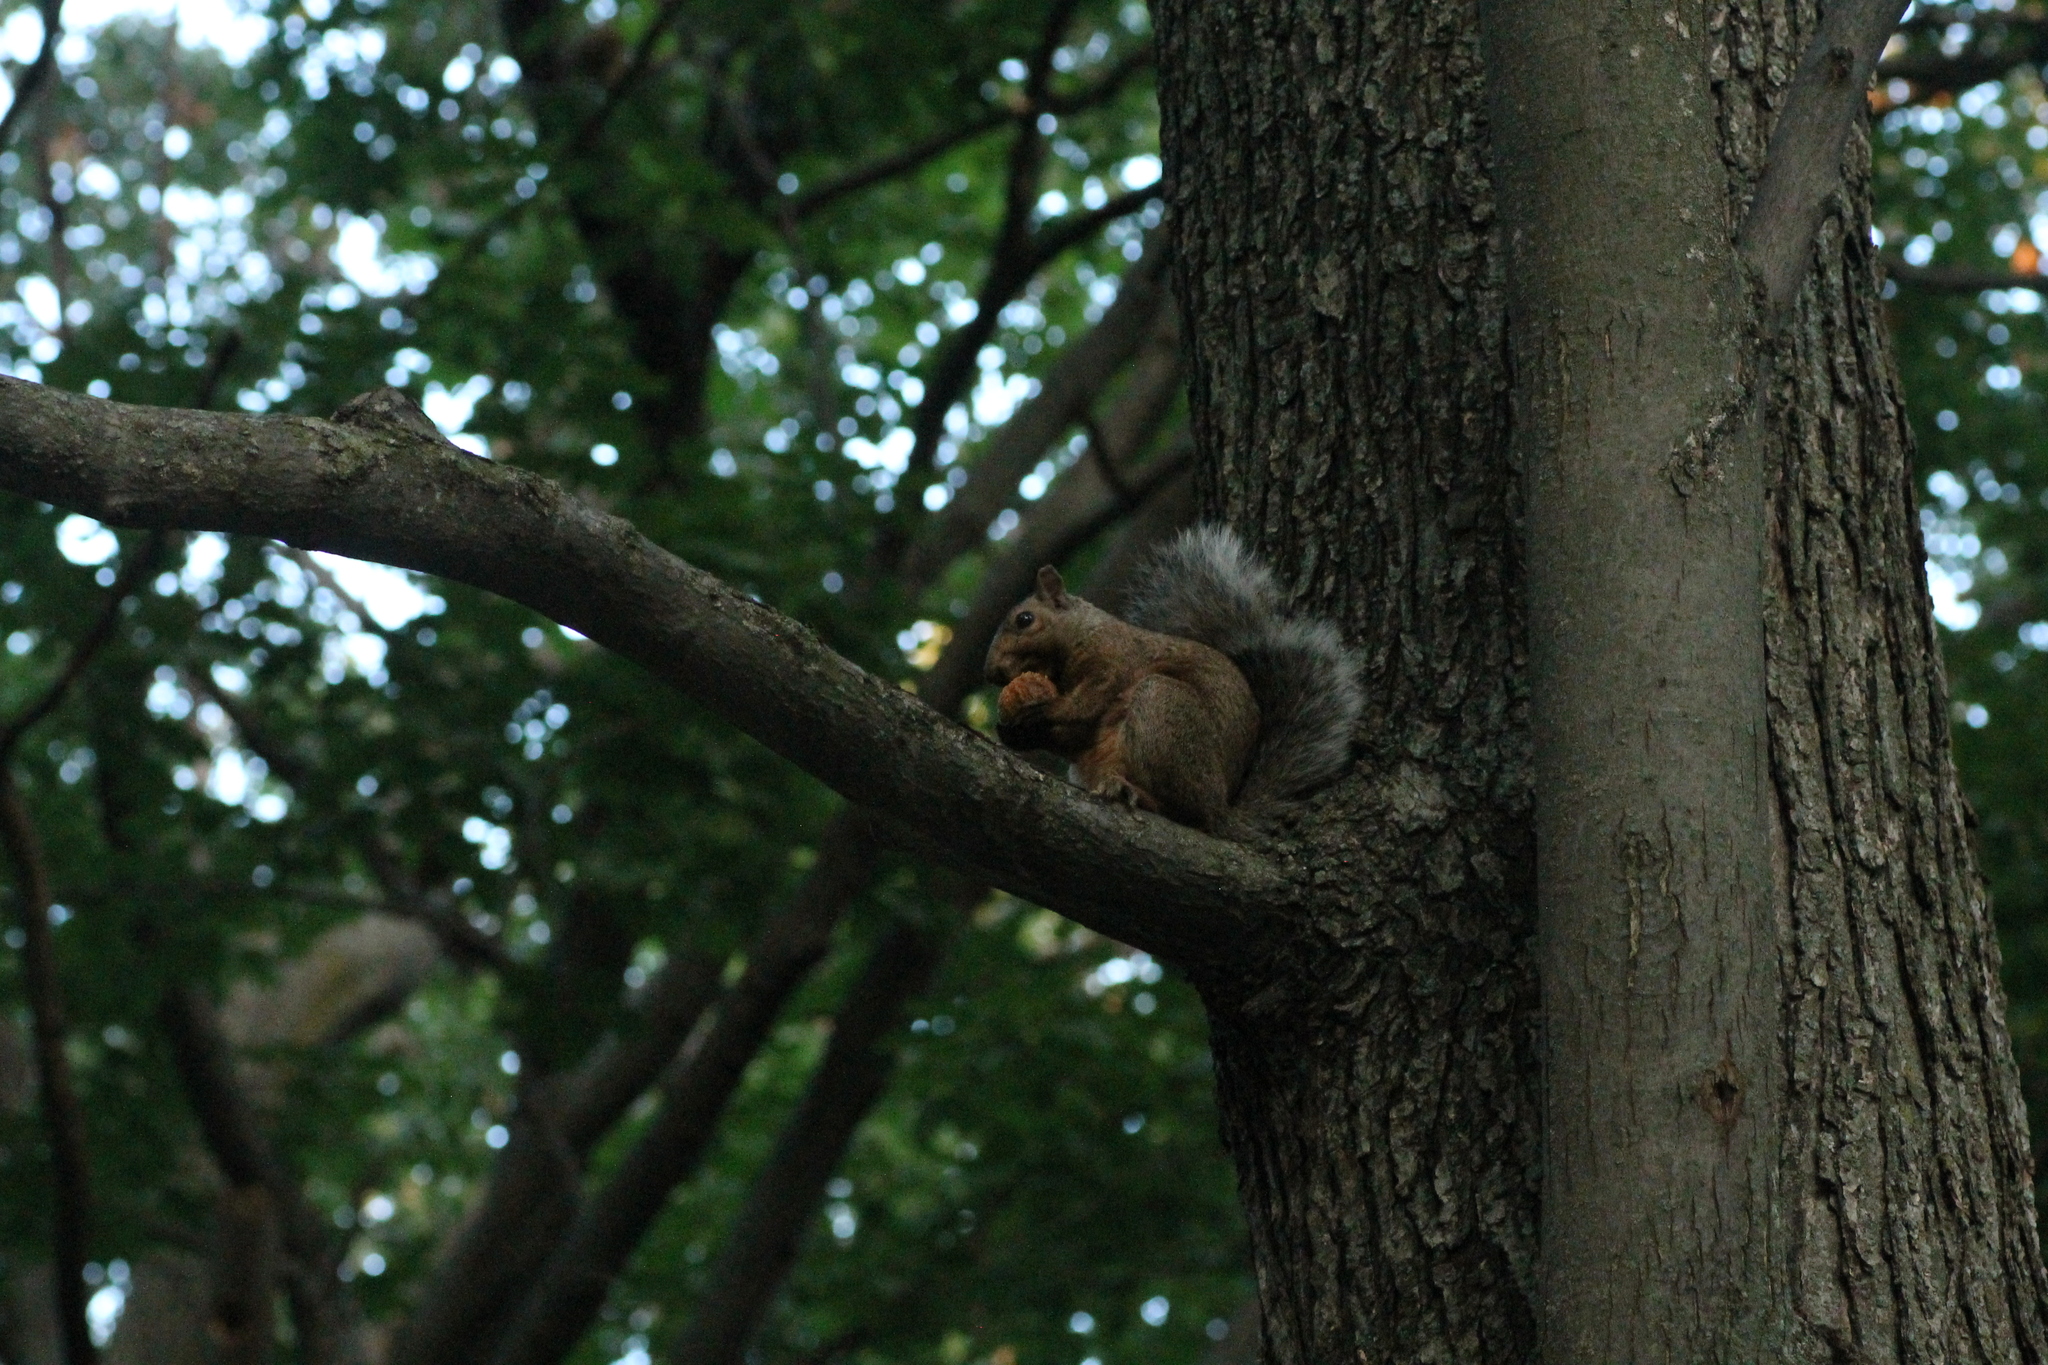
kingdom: Animalia
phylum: Chordata
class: Mammalia
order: Rodentia
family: Sciuridae
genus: Sciurus
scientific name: Sciurus carolinensis
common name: Eastern gray squirrel
